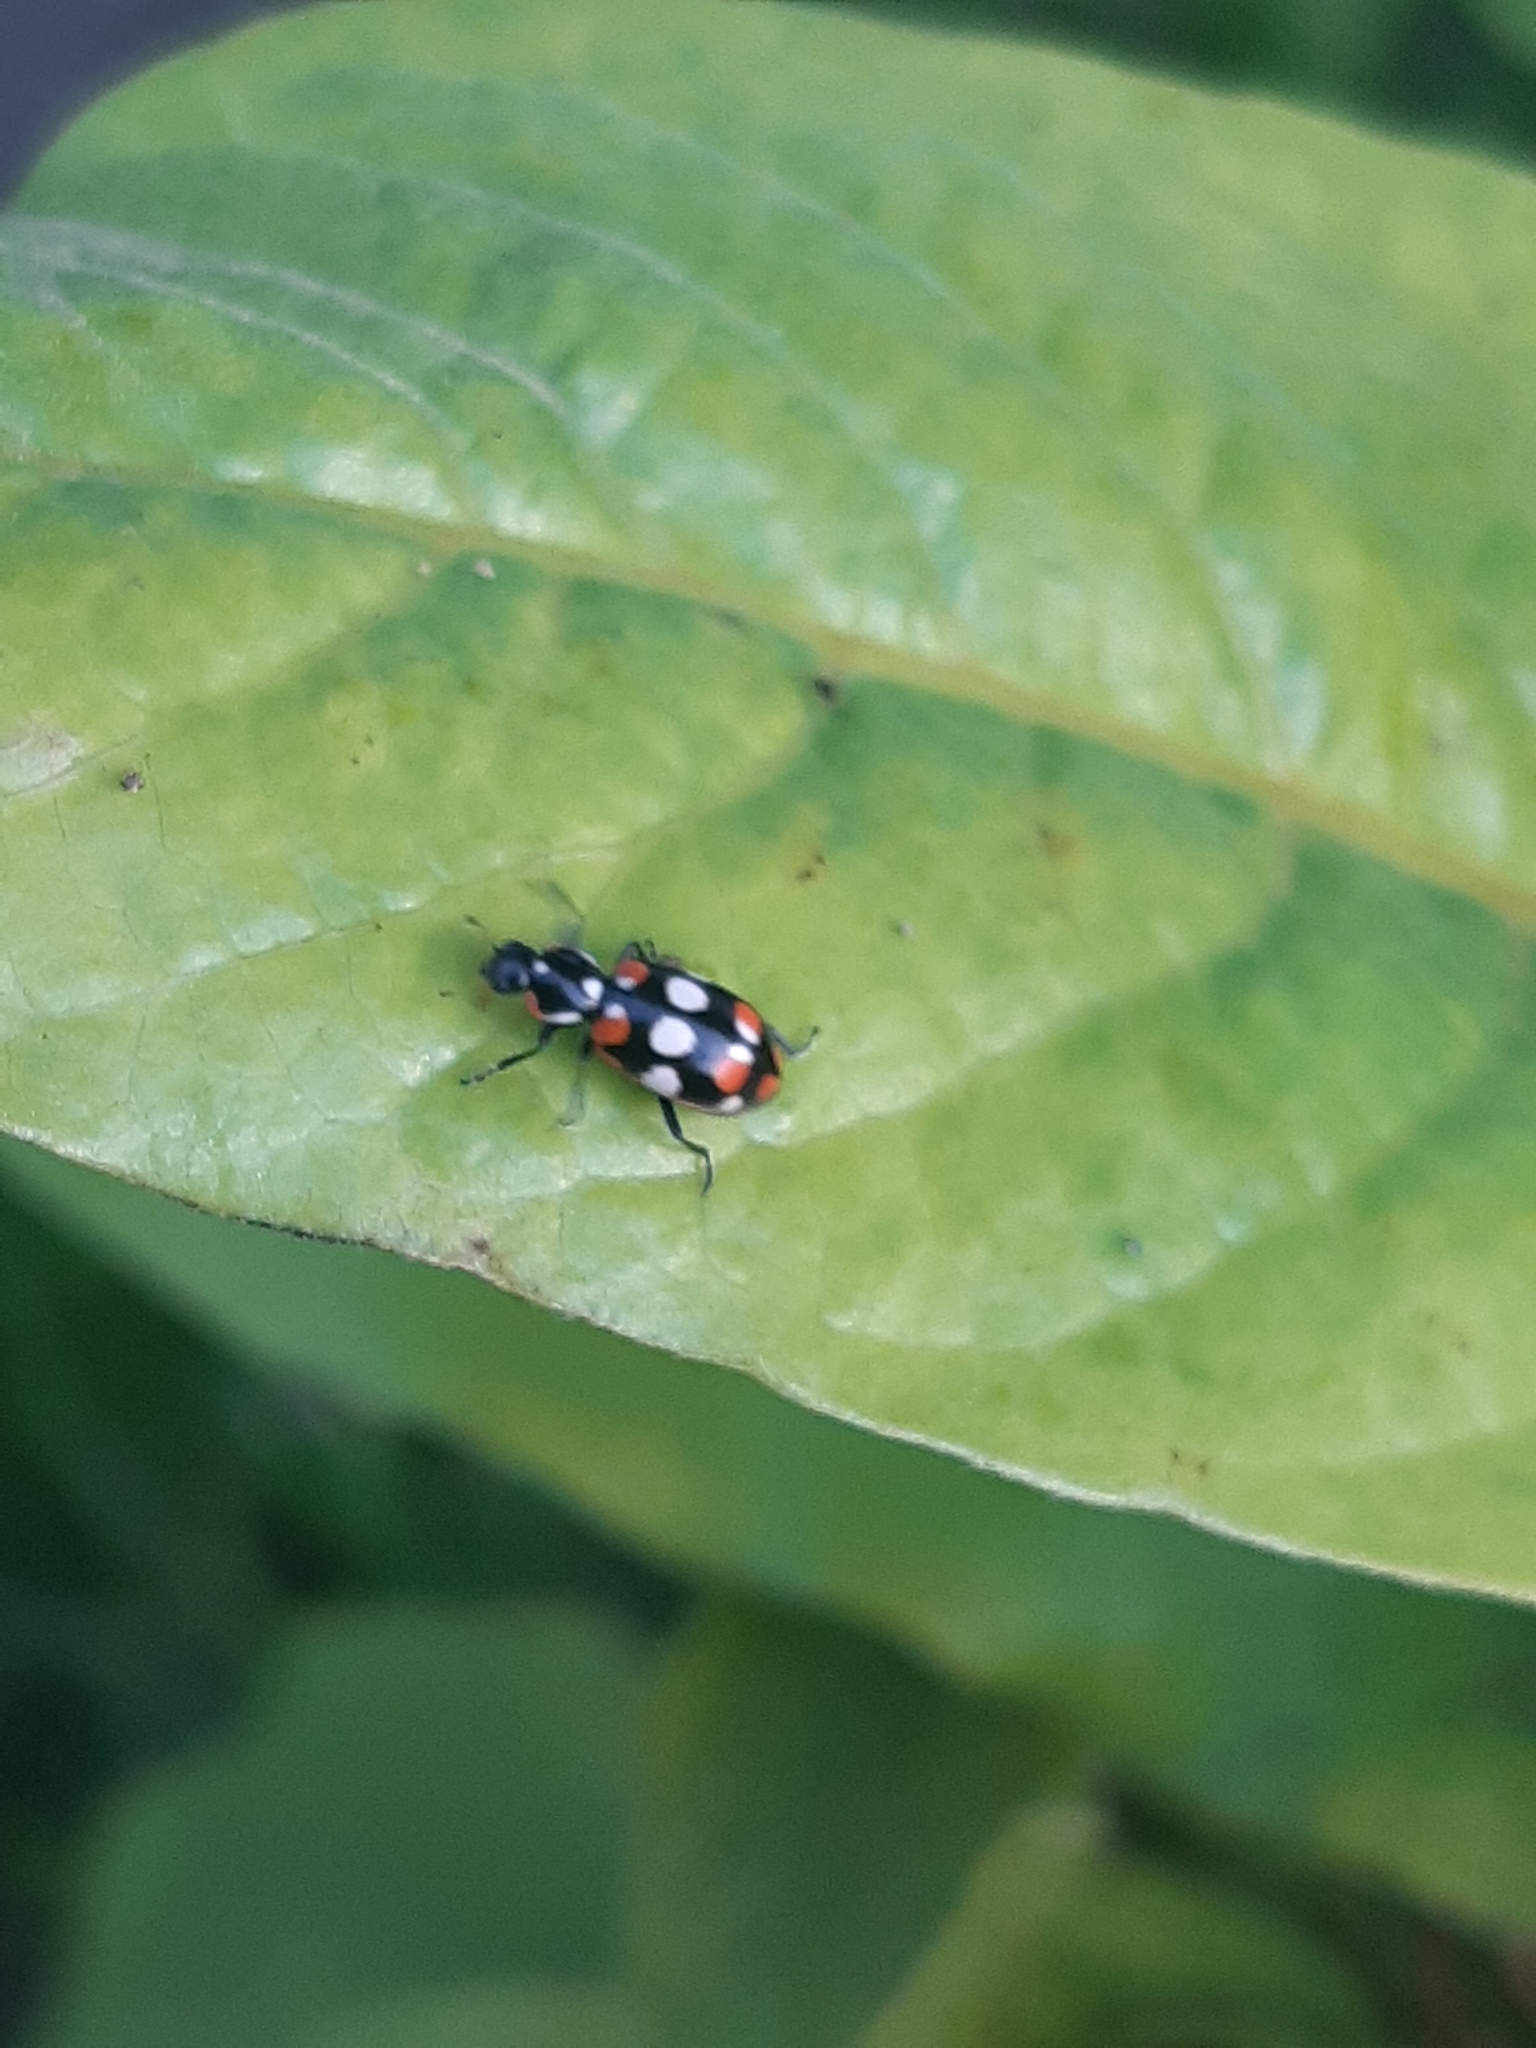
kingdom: Animalia
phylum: Arthropoda
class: Insecta
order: Coleoptera
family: Coccinellidae
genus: Eriopis
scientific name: Eriopis connexa
